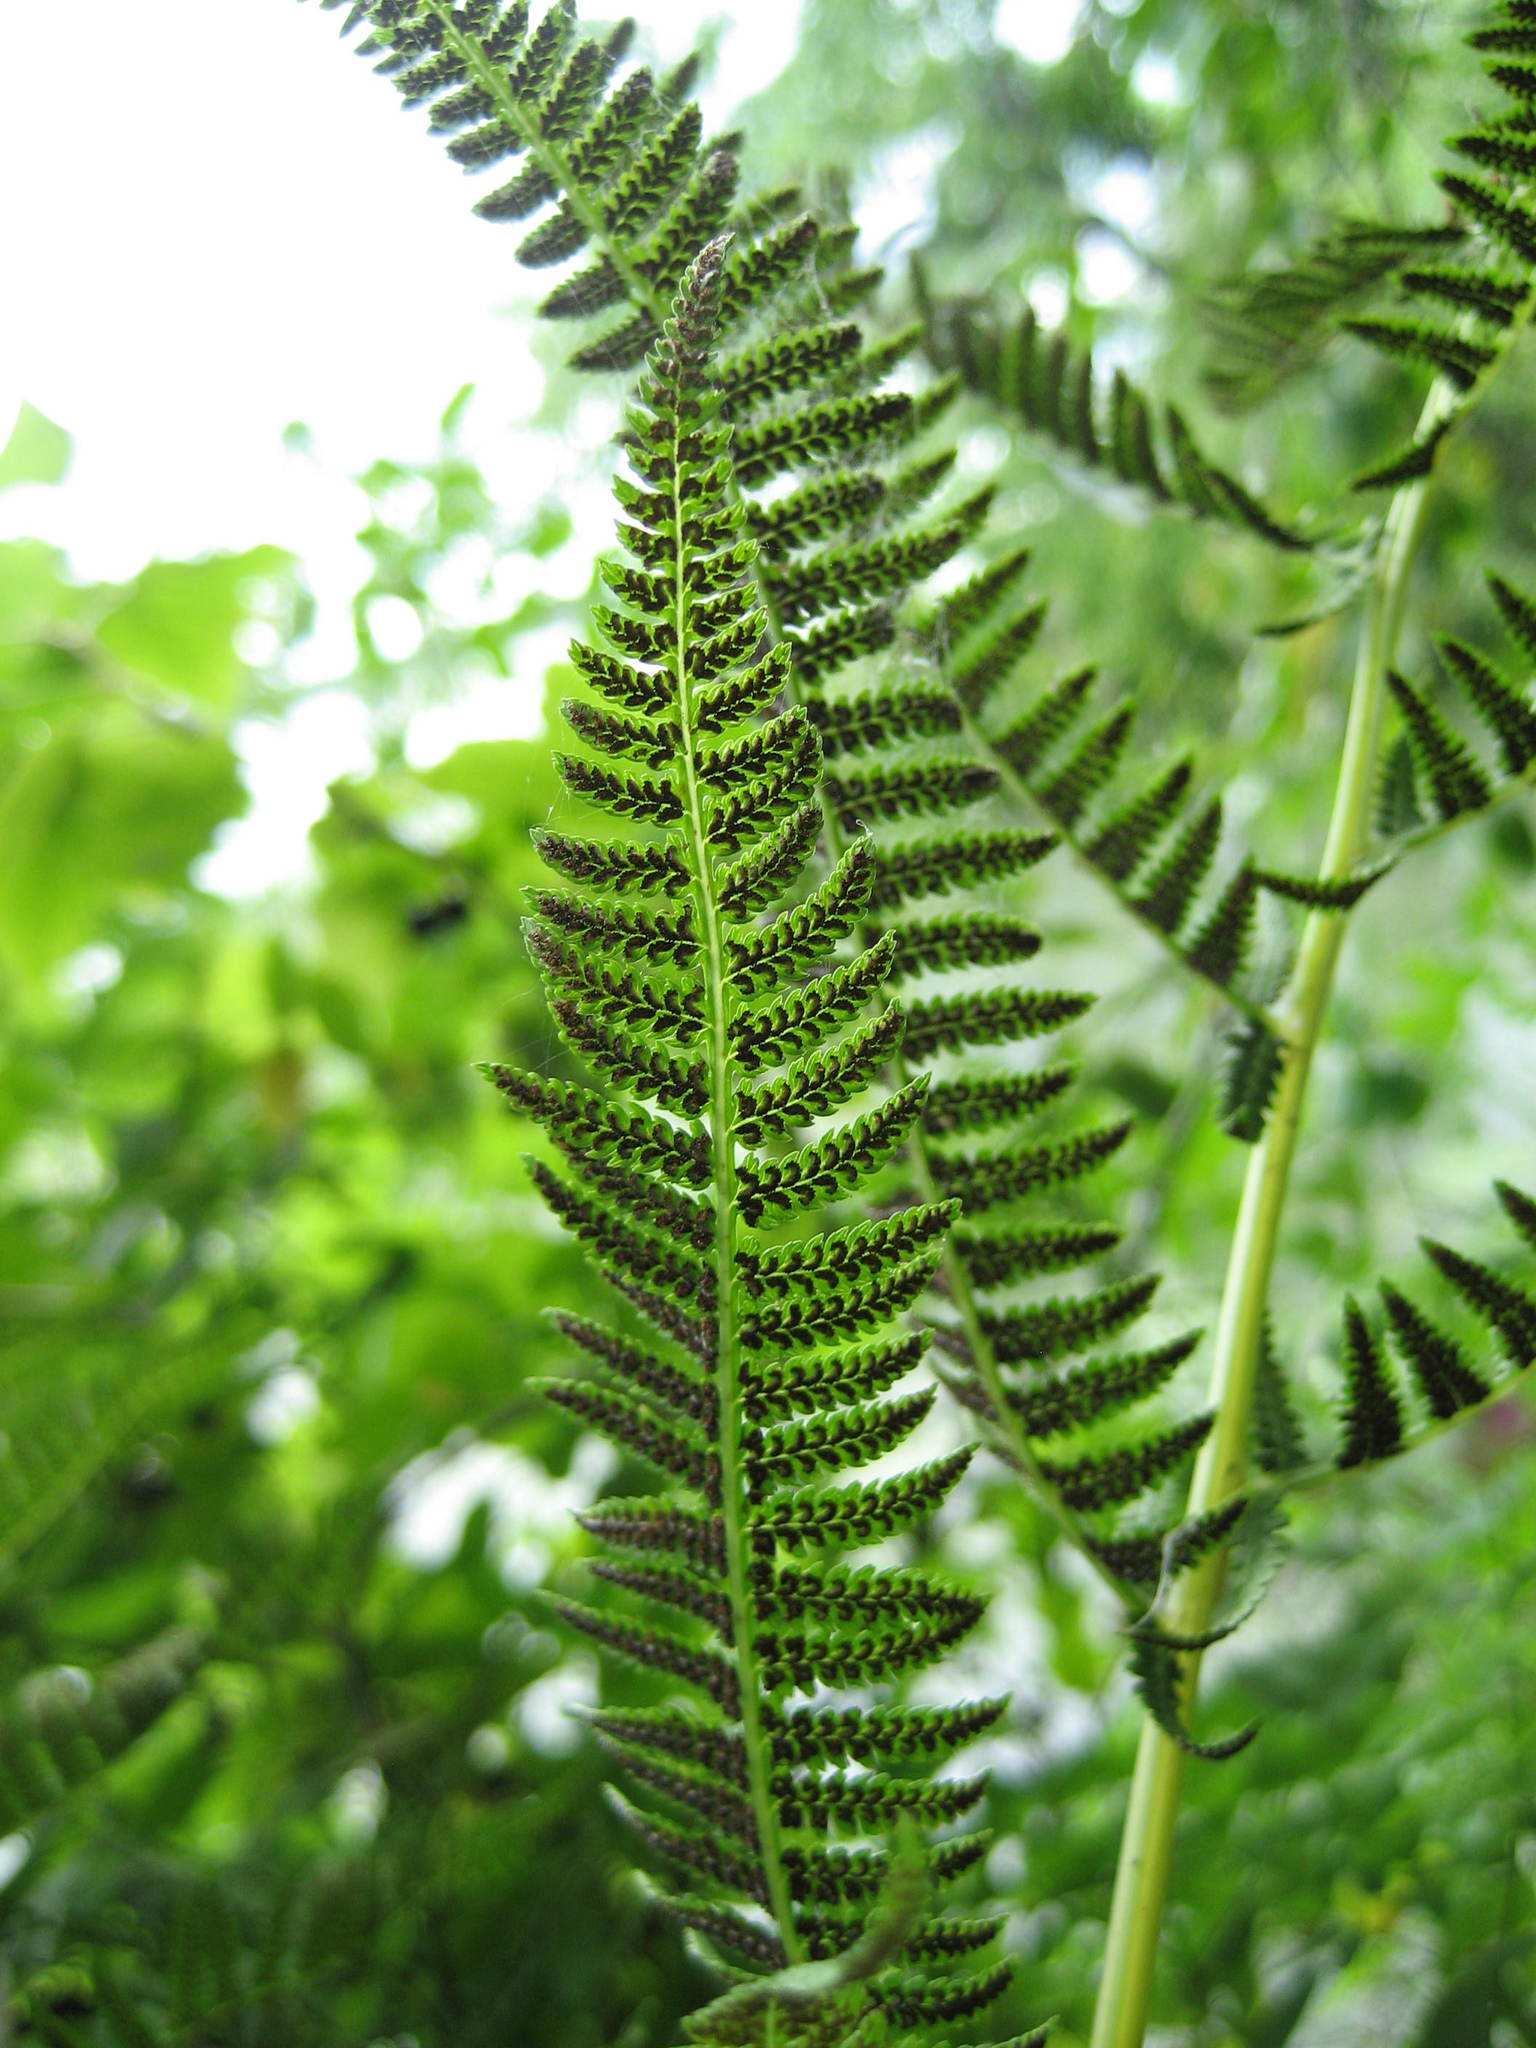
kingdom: Plantae
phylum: Tracheophyta
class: Polypodiopsida
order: Polypodiales
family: Athyriaceae
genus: Athyrium
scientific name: Athyrium angustum
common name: Northern lady fern
